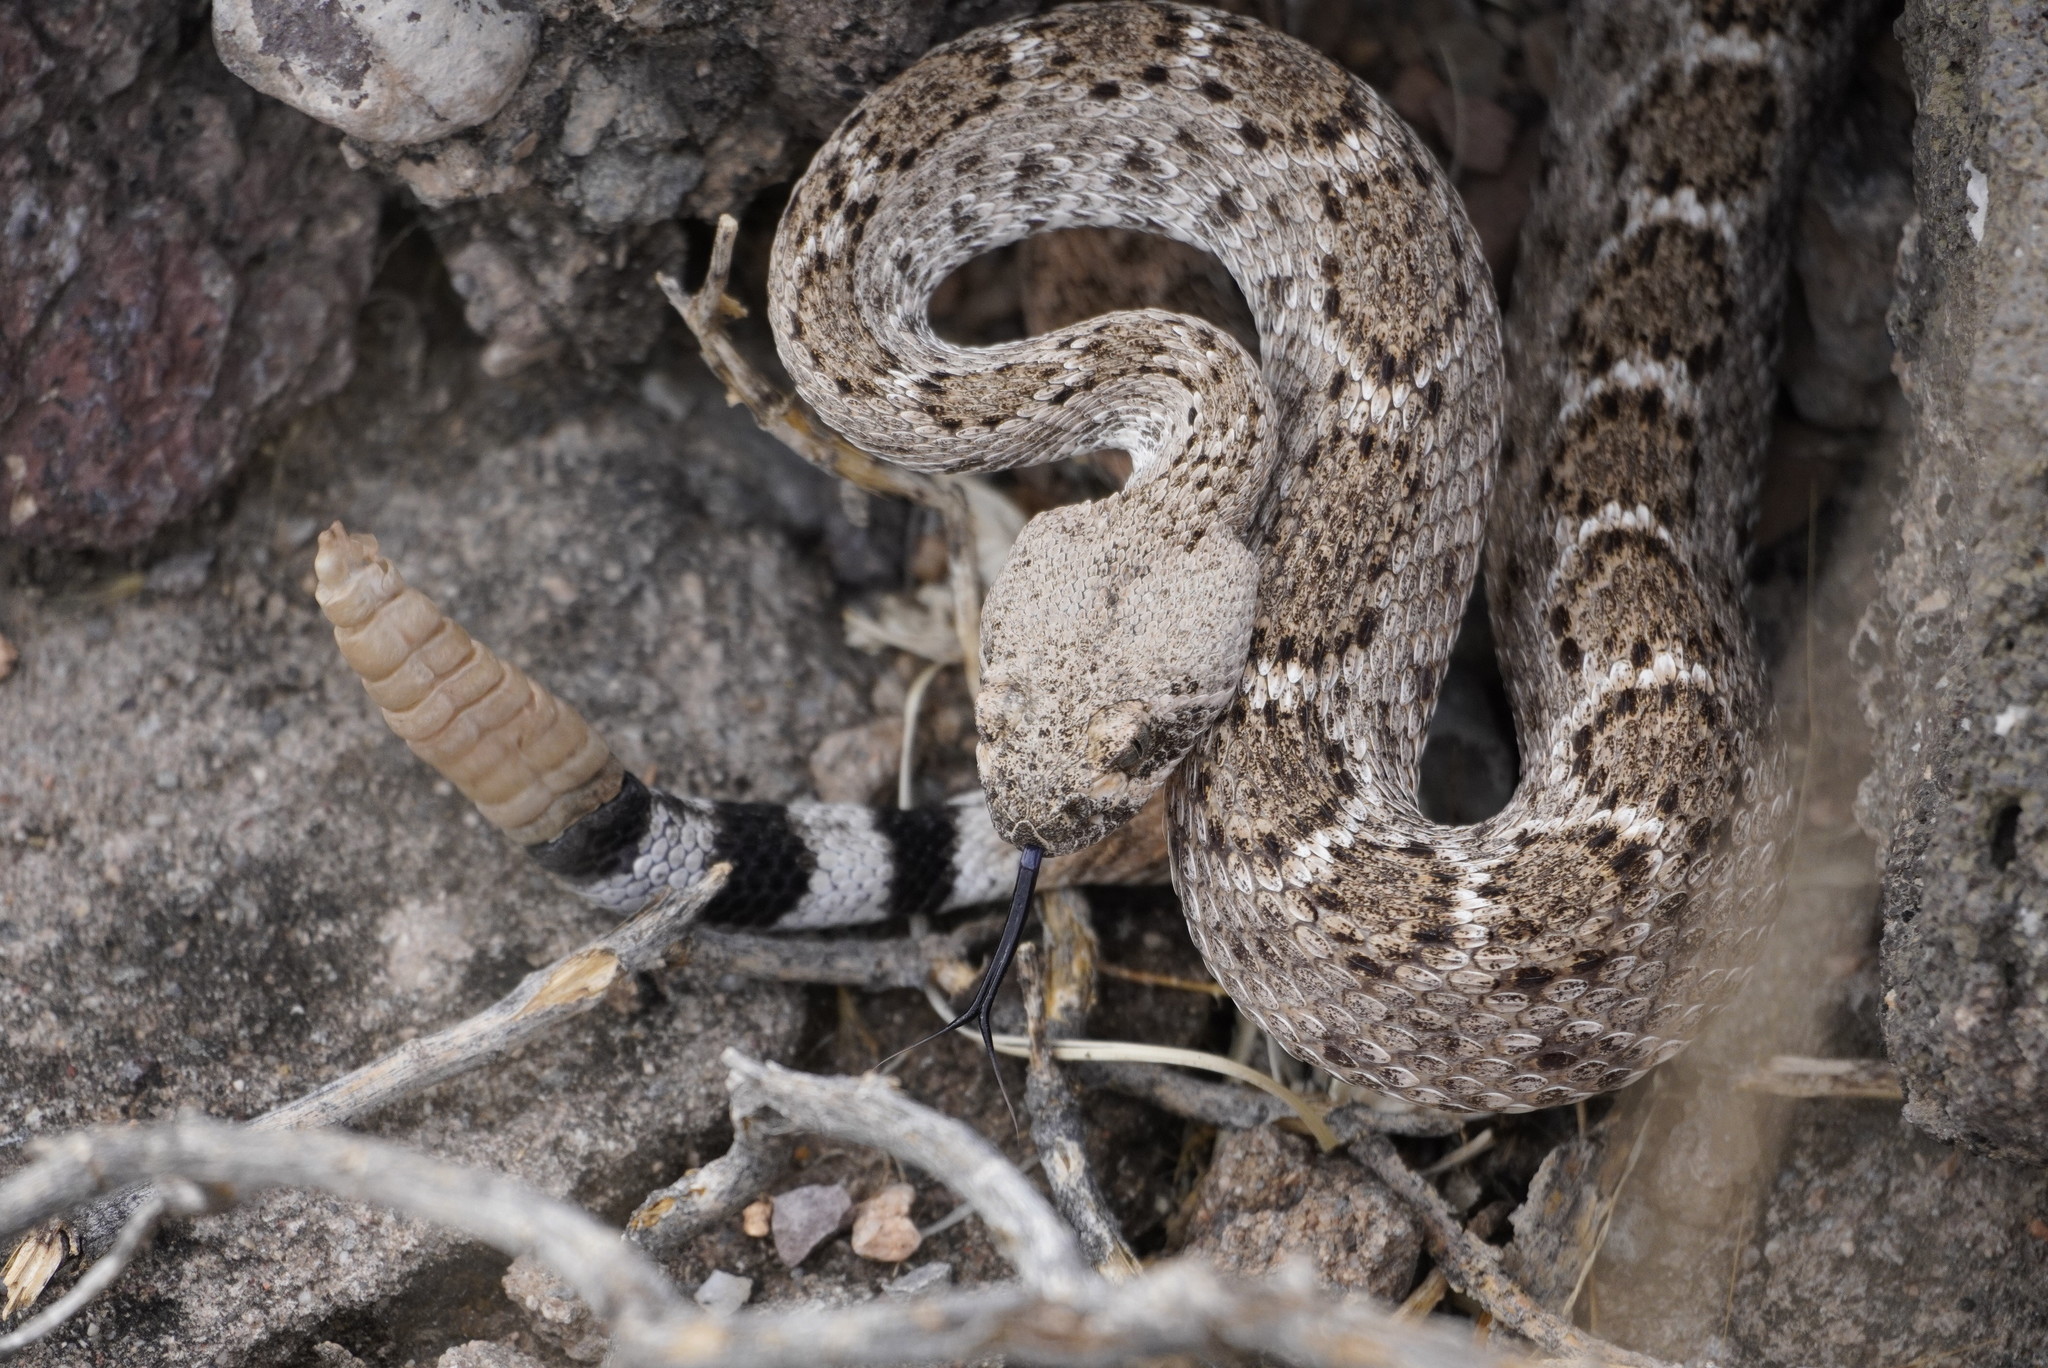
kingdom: Animalia
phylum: Chordata
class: Squamata
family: Viperidae
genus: Crotalus
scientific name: Crotalus atrox
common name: Western diamond-backed rattlesnake
